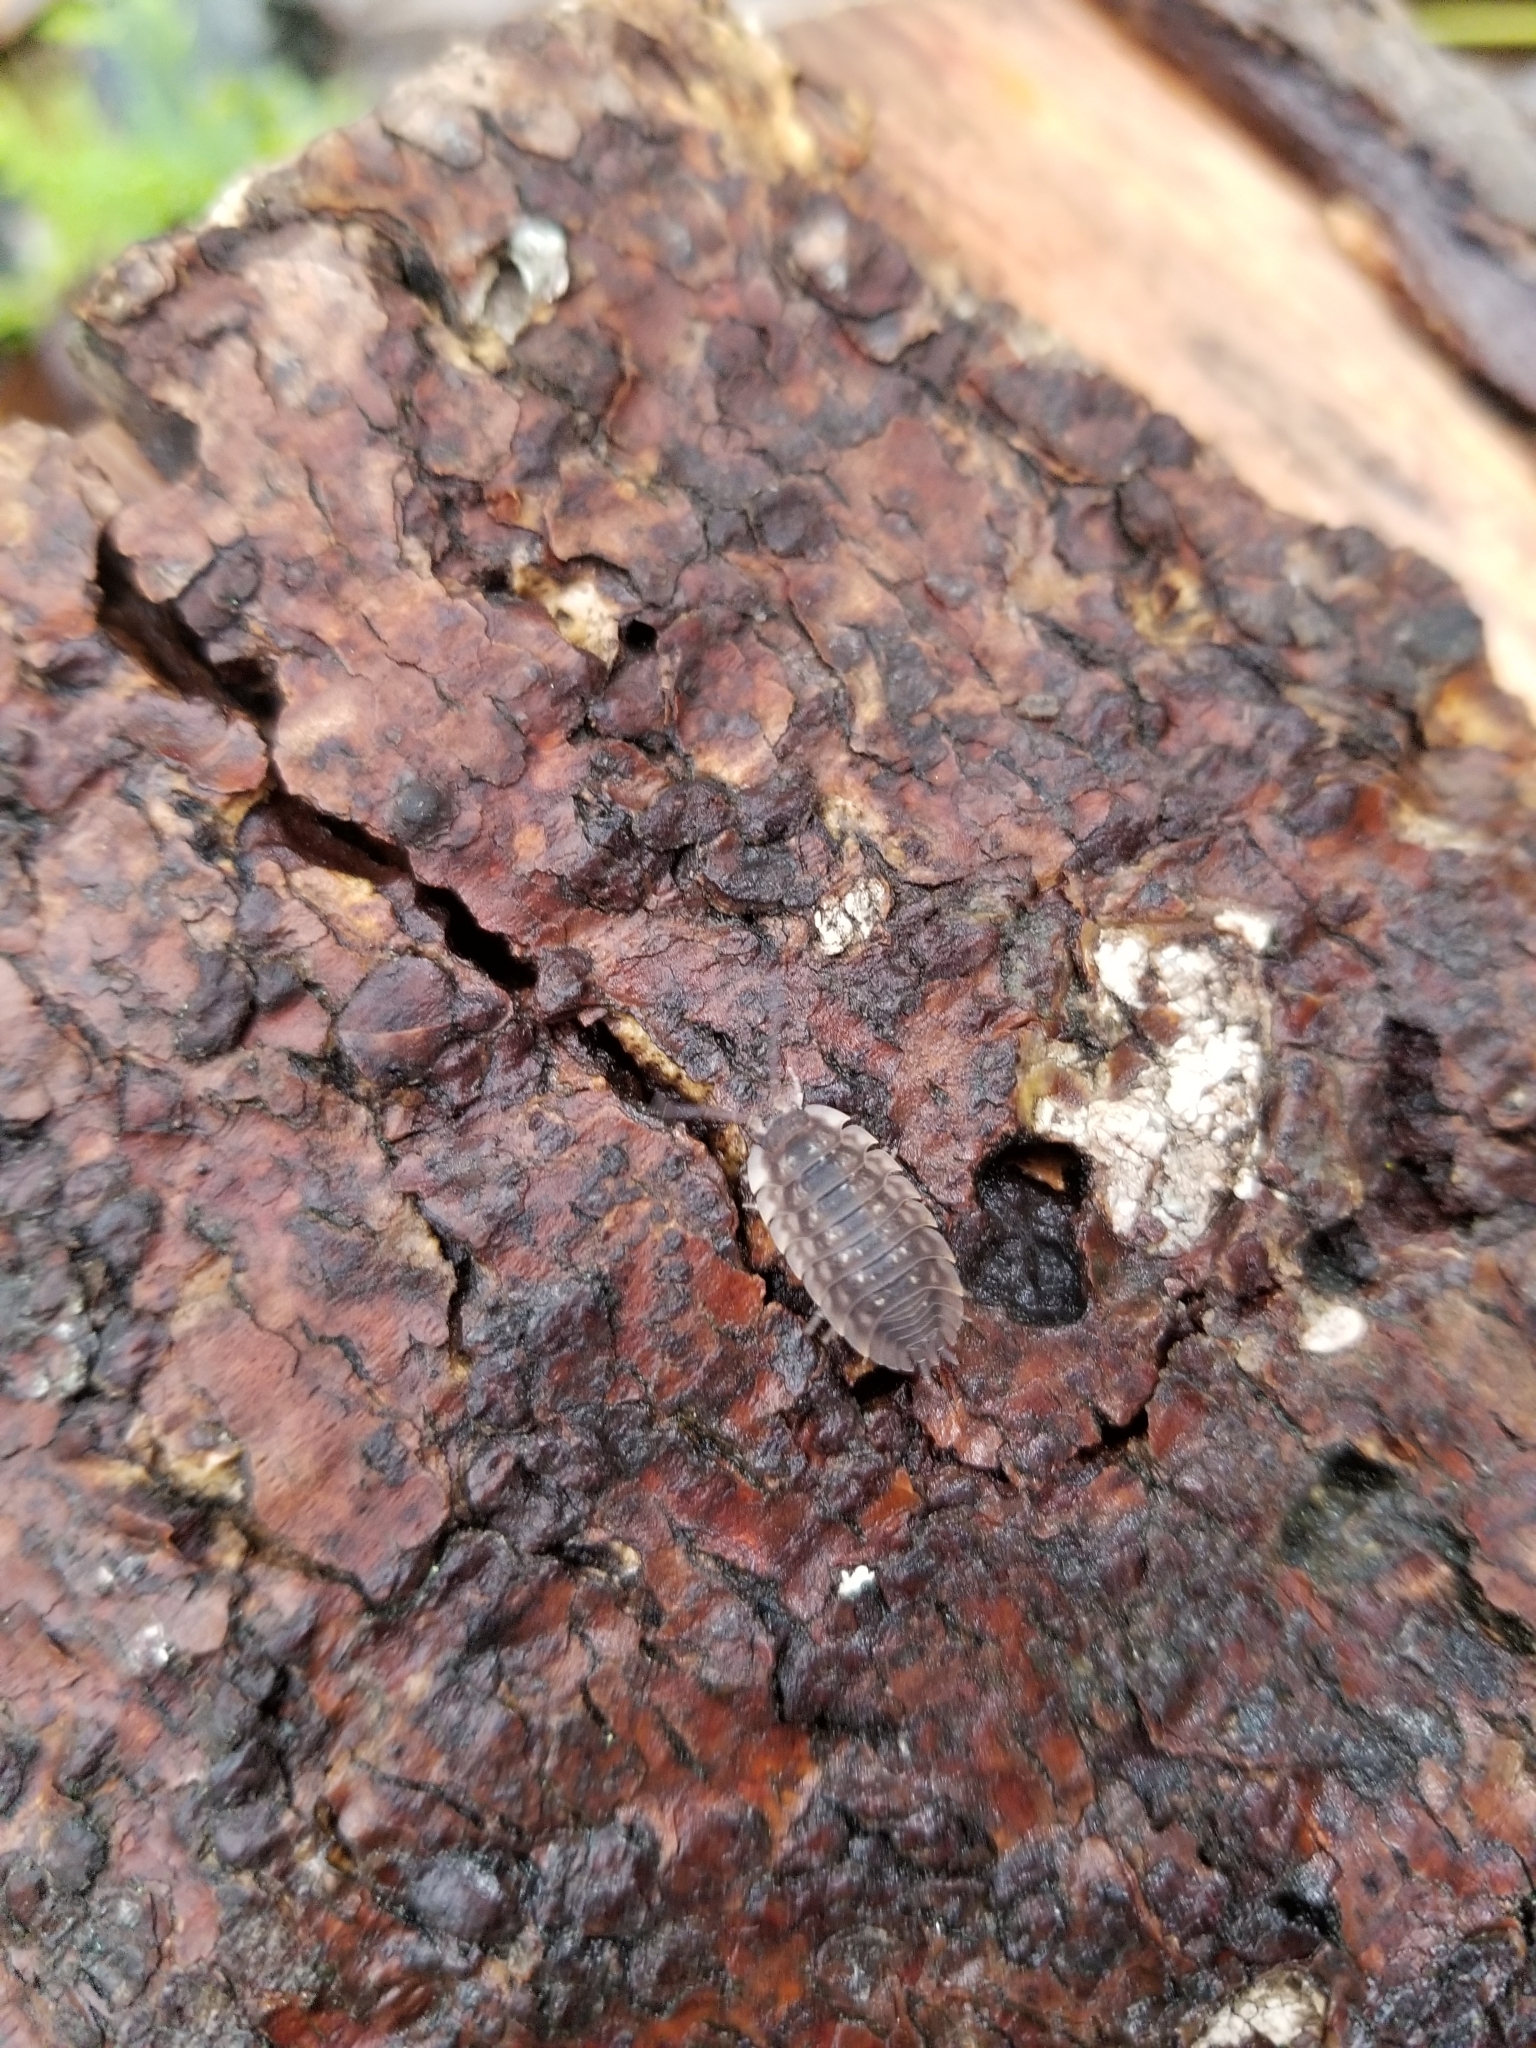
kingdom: Animalia
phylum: Arthropoda
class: Malacostraca
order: Isopoda
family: Oniscidae
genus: Oniscus
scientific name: Oniscus asellus
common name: Common shiny woodlouse
